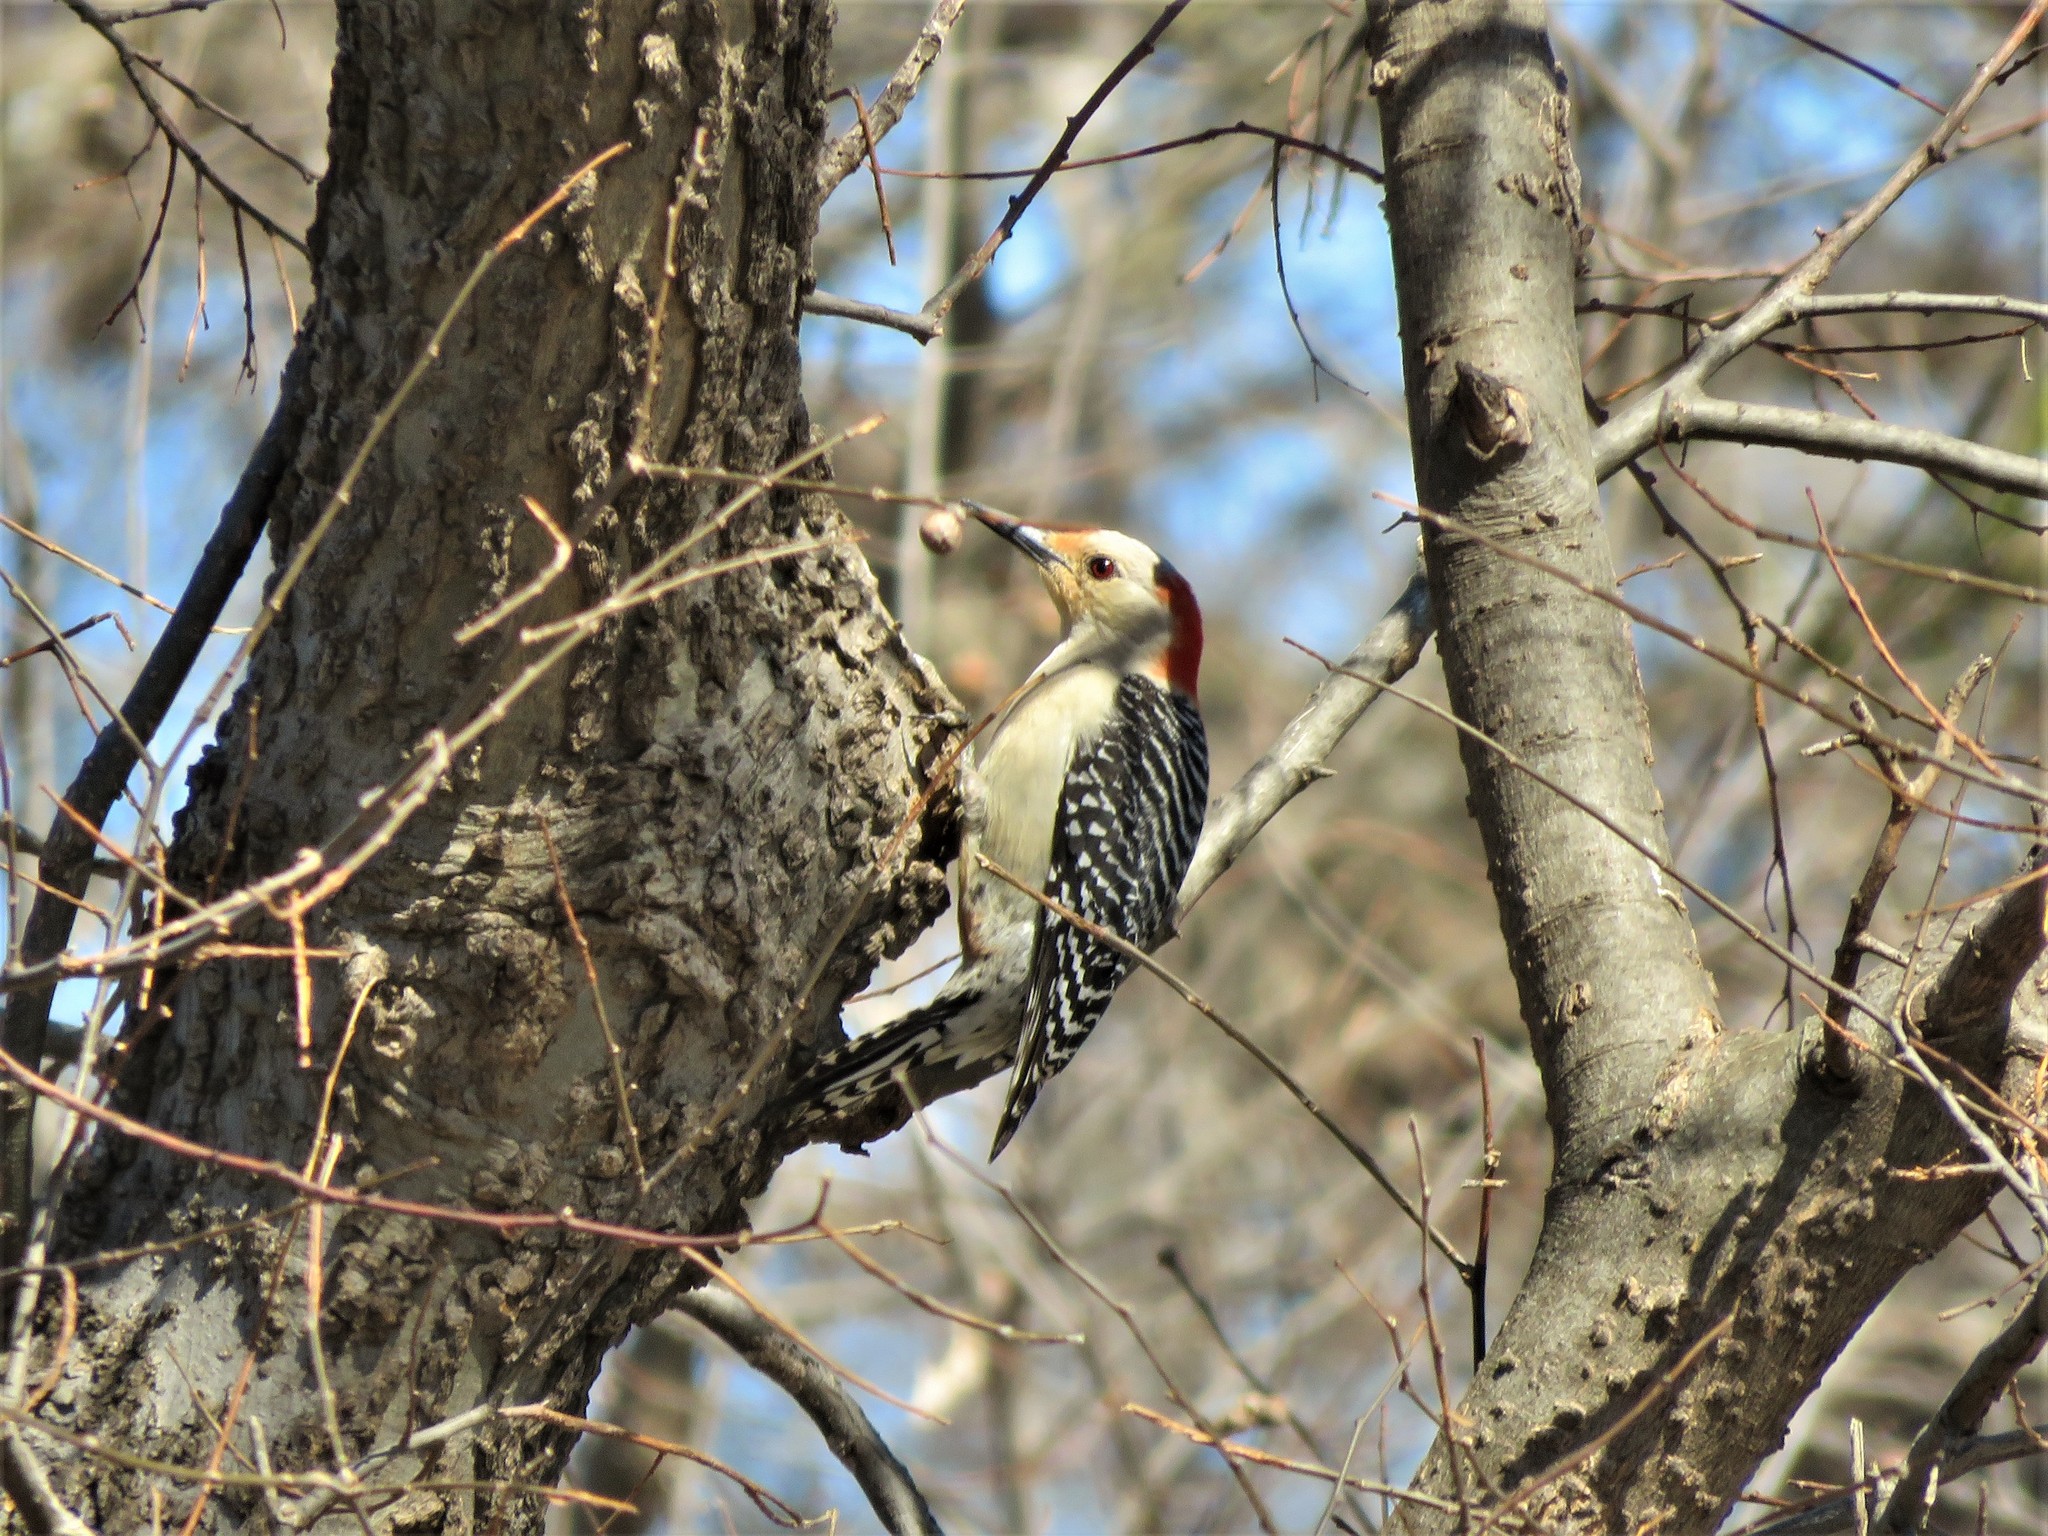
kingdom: Animalia
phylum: Chordata
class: Aves
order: Piciformes
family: Picidae
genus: Melanerpes
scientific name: Melanerpes carolinus
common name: Red-bellied woodpecker
